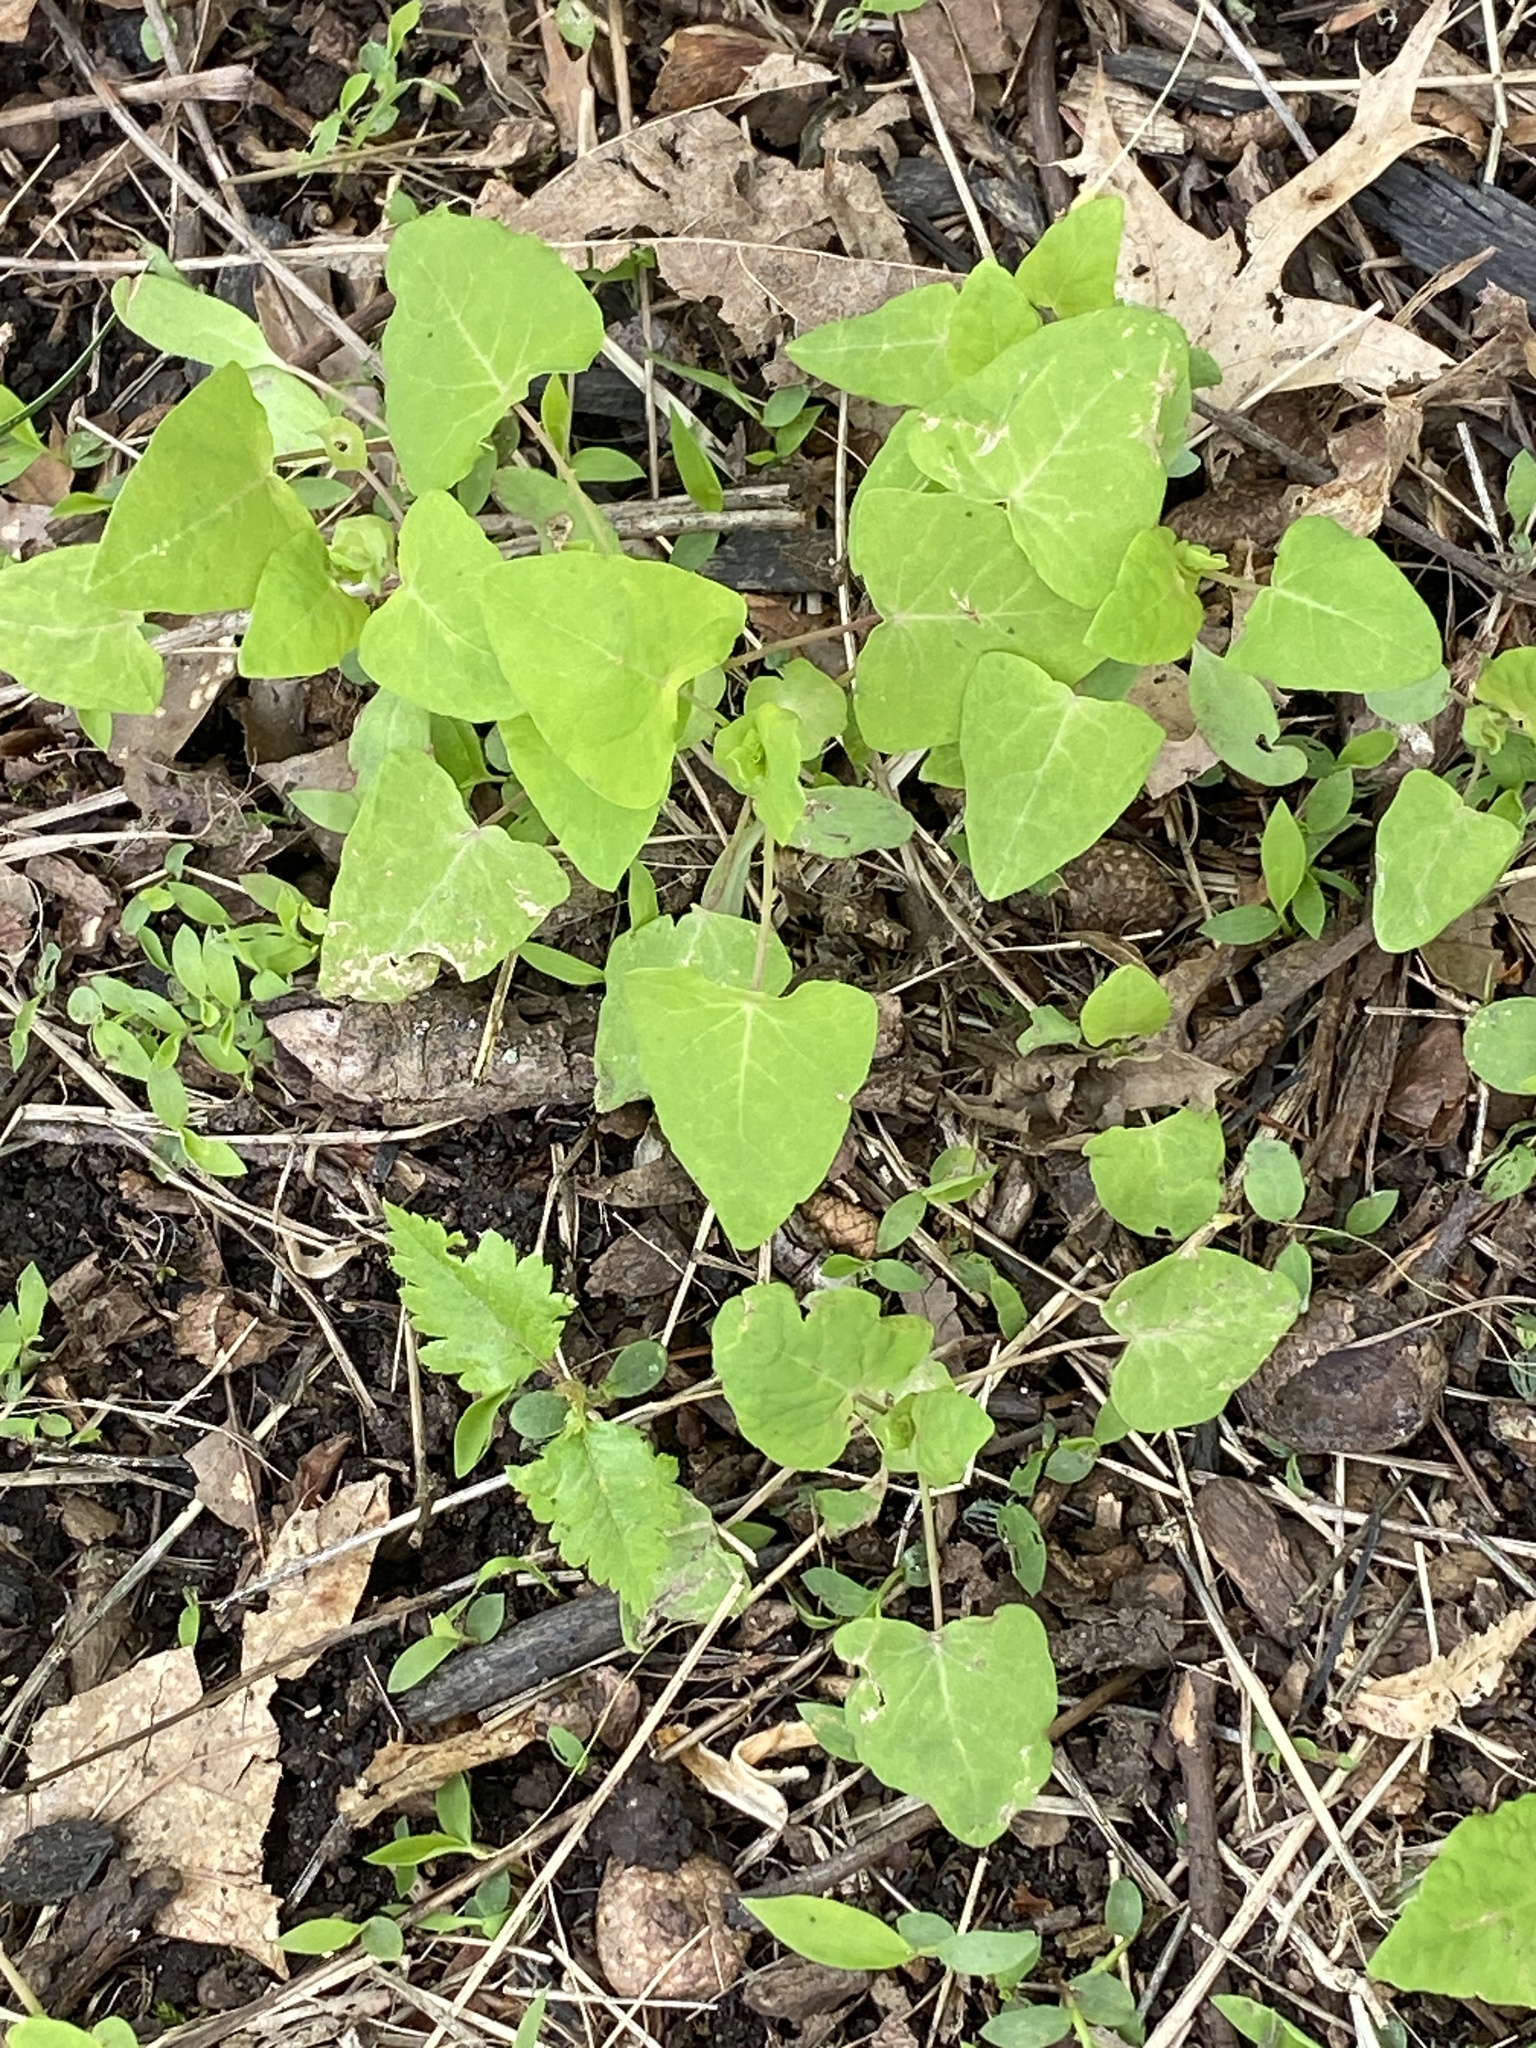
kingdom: Plantae
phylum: Tracheophyta
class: Magnoliopsida
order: Caryophyllales
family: Polygonaceae
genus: Persicaria
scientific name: Persicaria perfoliata
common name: Asiatic tearthumb
